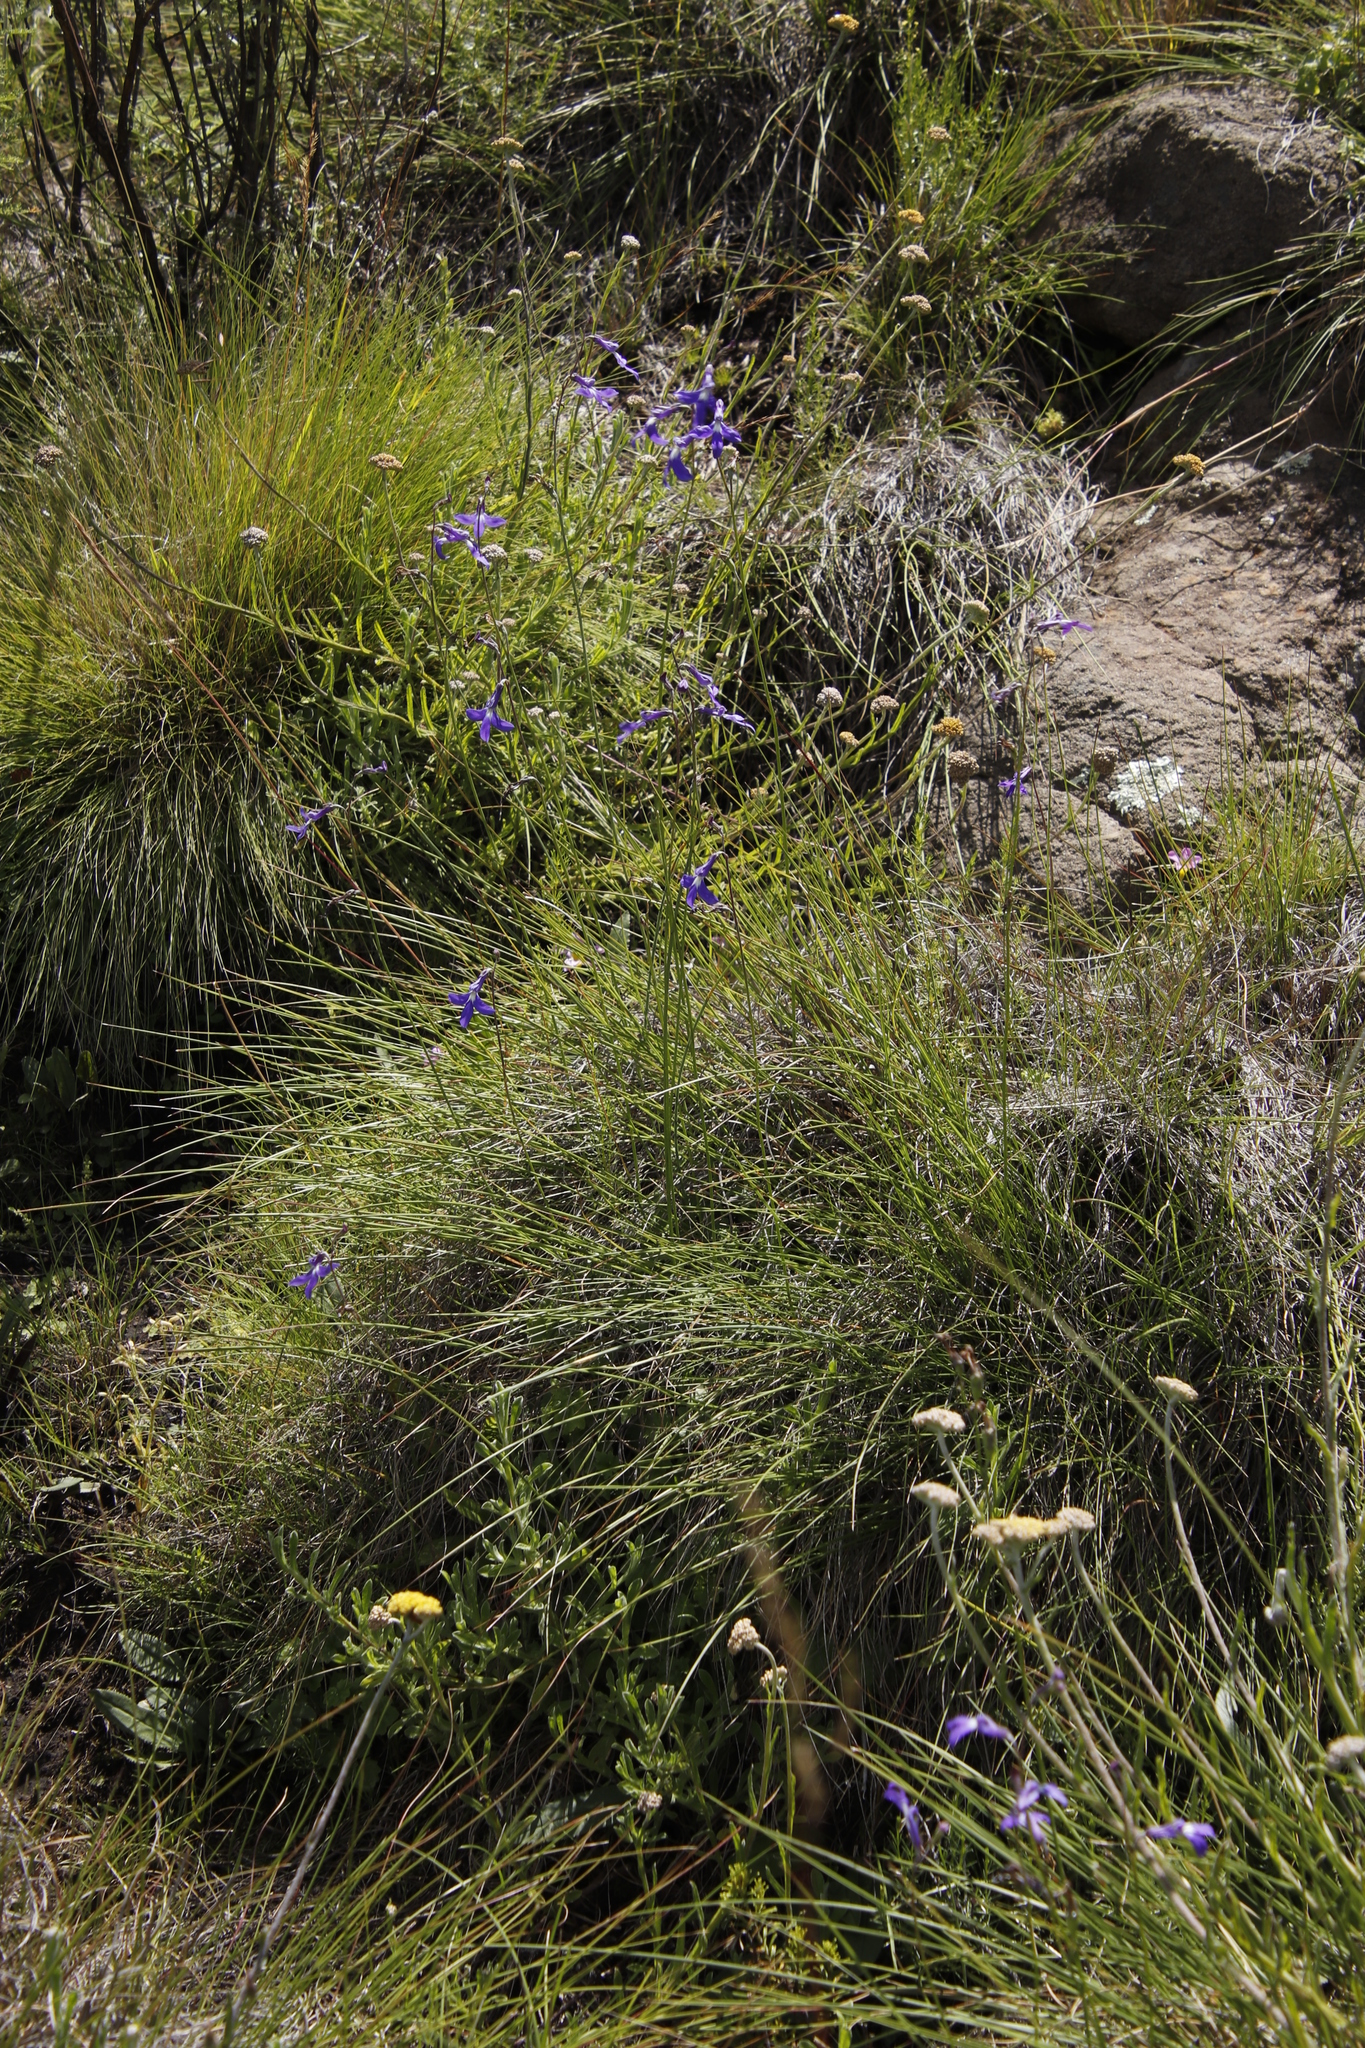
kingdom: Plantae
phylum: Tracheophyta
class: Magnoliopsida
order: Asterales
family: Campanulaceae
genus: Lobelia
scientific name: Lobelia preslii
